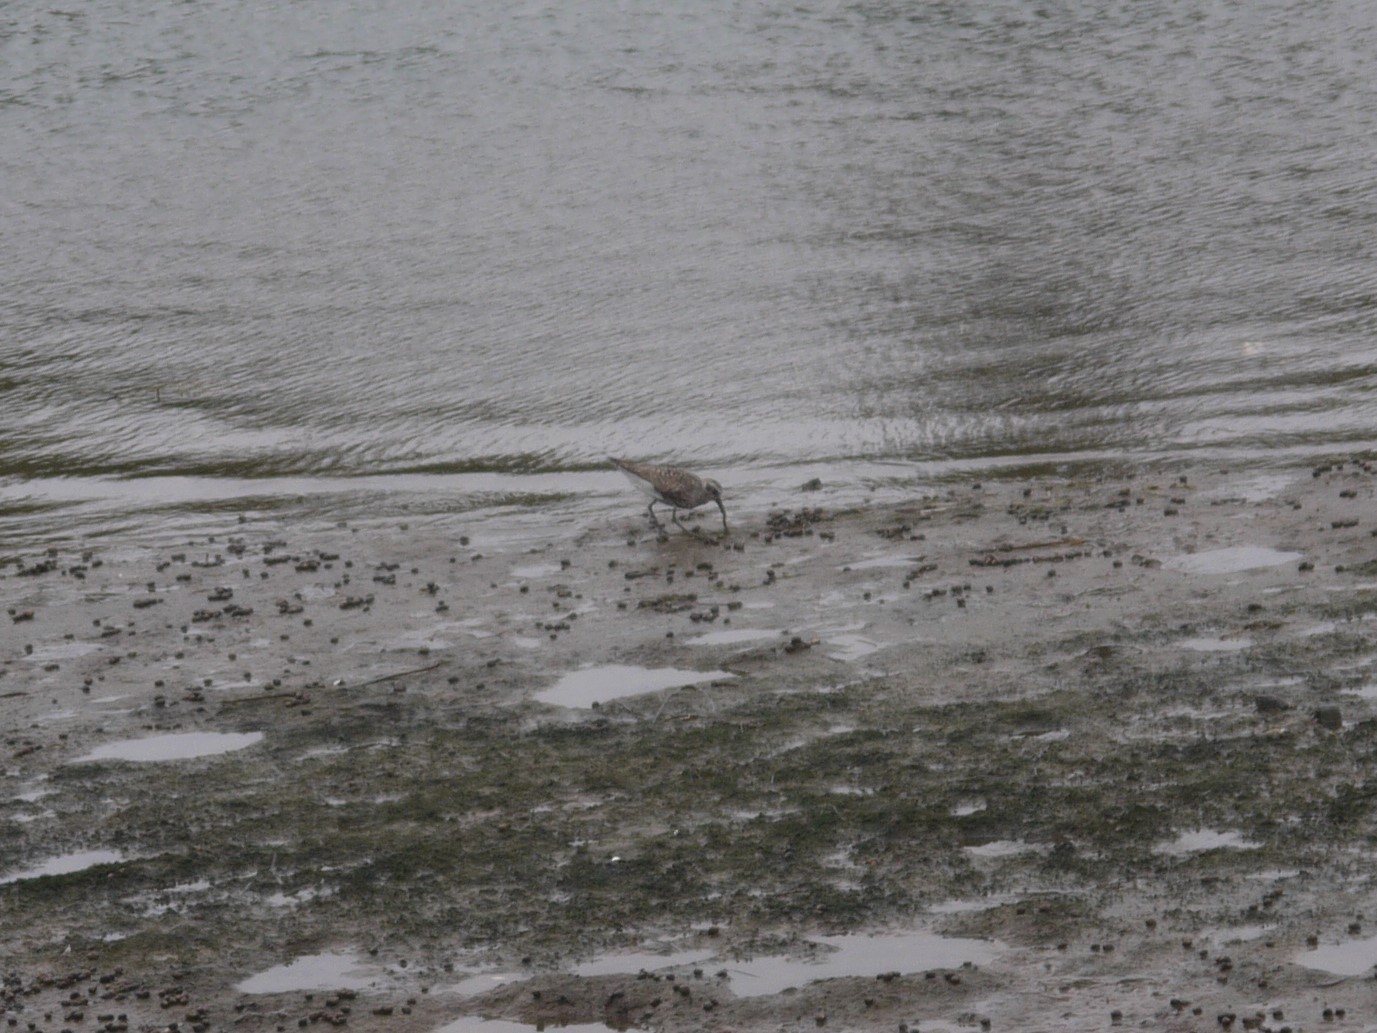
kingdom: Animalia
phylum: Chordata
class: Aves
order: Charadriiformes
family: Charadriidae
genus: Pluvialis
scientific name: Pluvialis squatarola
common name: Grey plover
